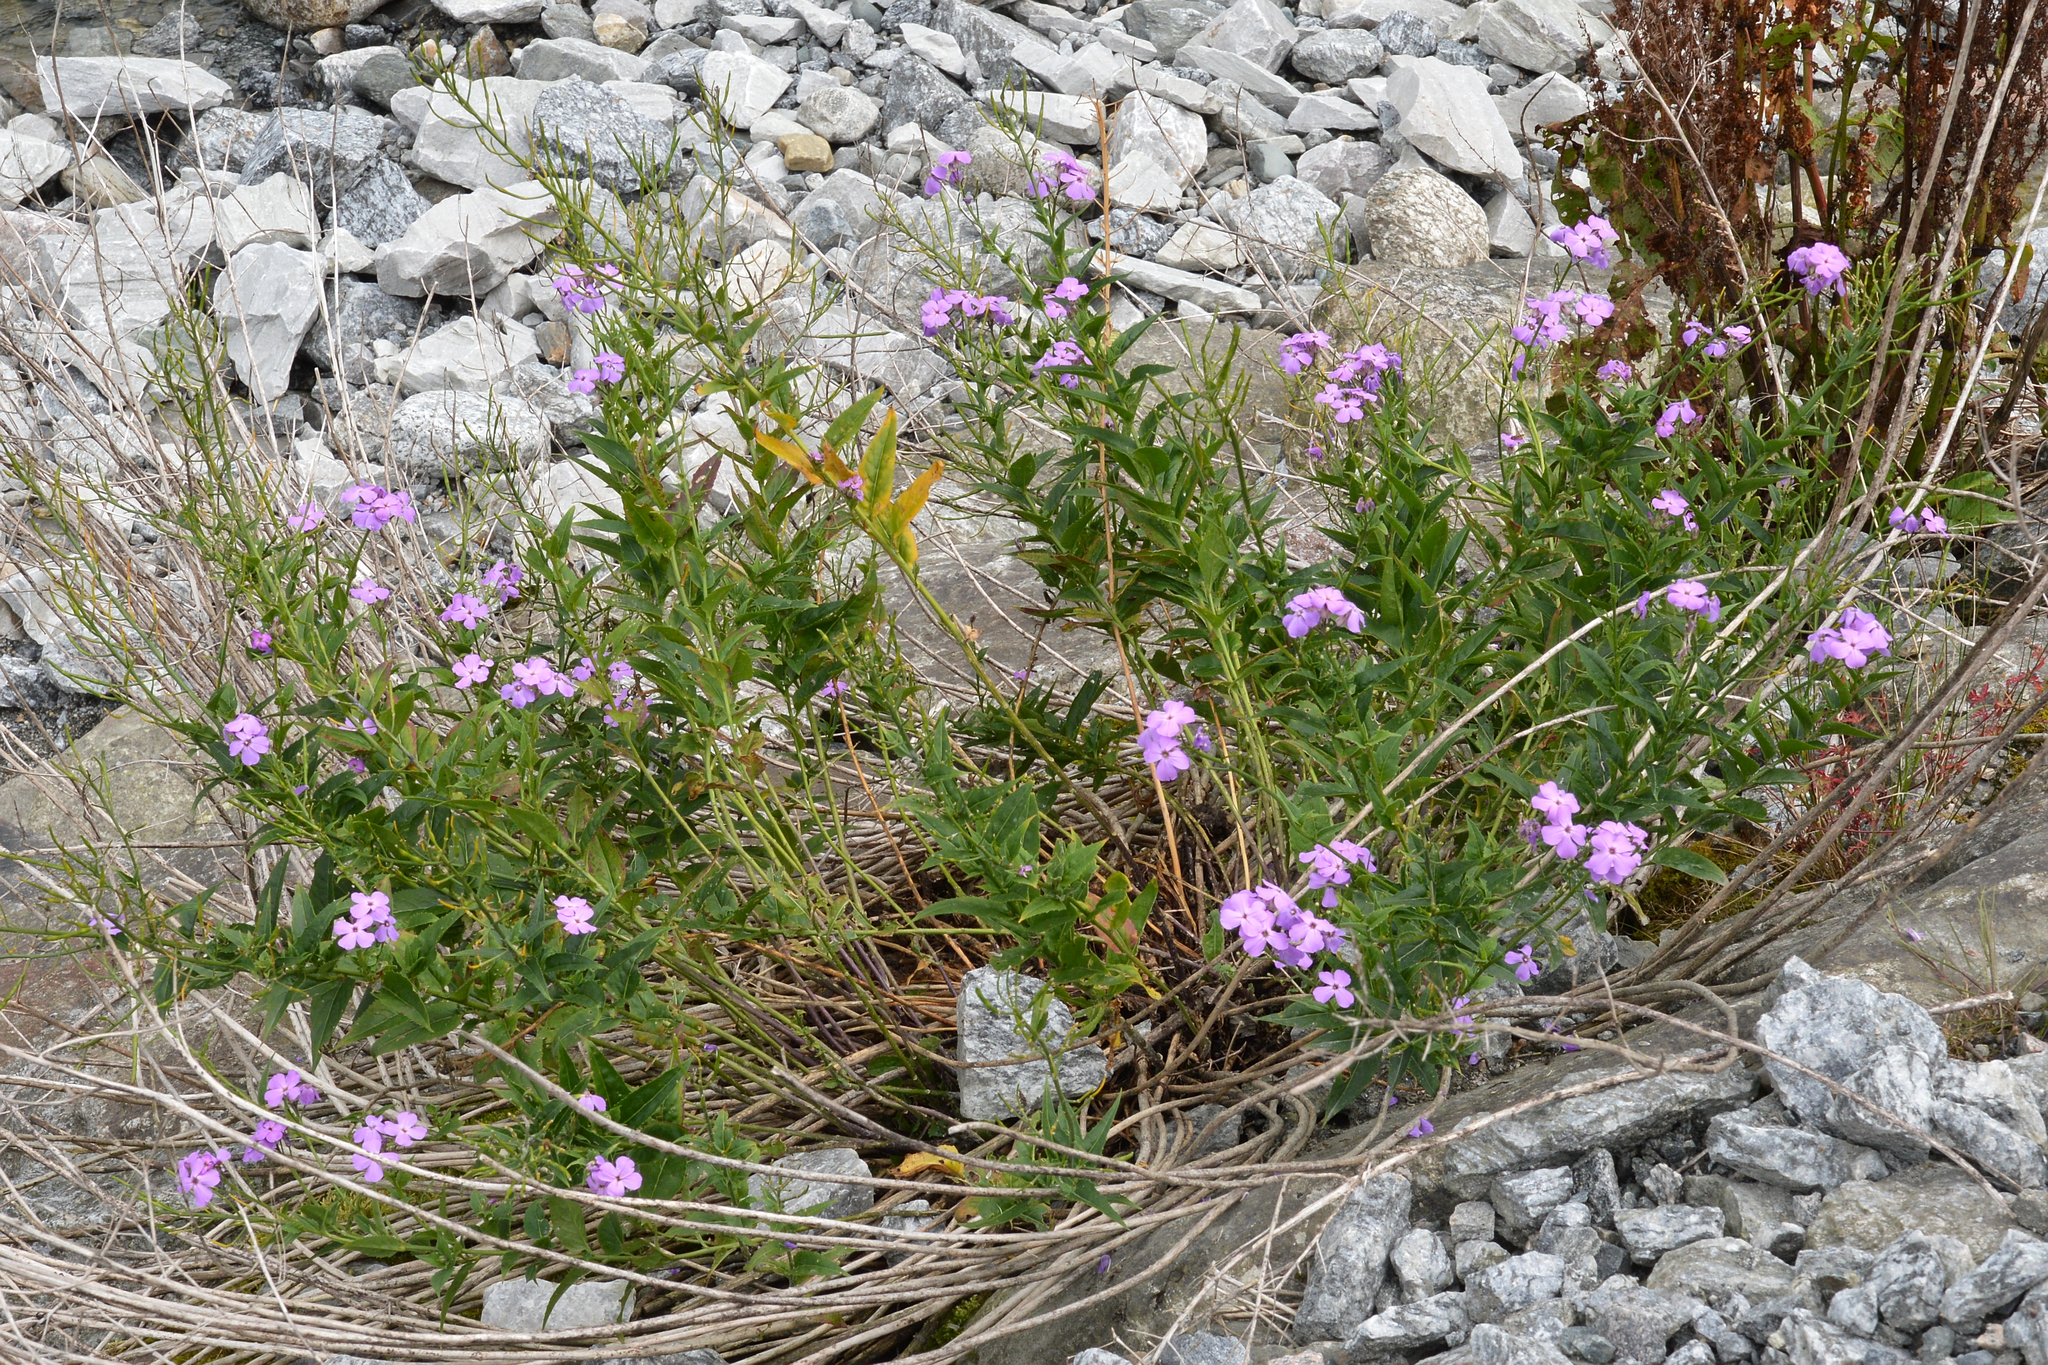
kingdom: Plantae
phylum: Tracheophyta
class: Magnoliopsida
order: Brassicales
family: Brassicaceae
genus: Hesperis
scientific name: Hesperis matronalis
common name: Dame's-violet
